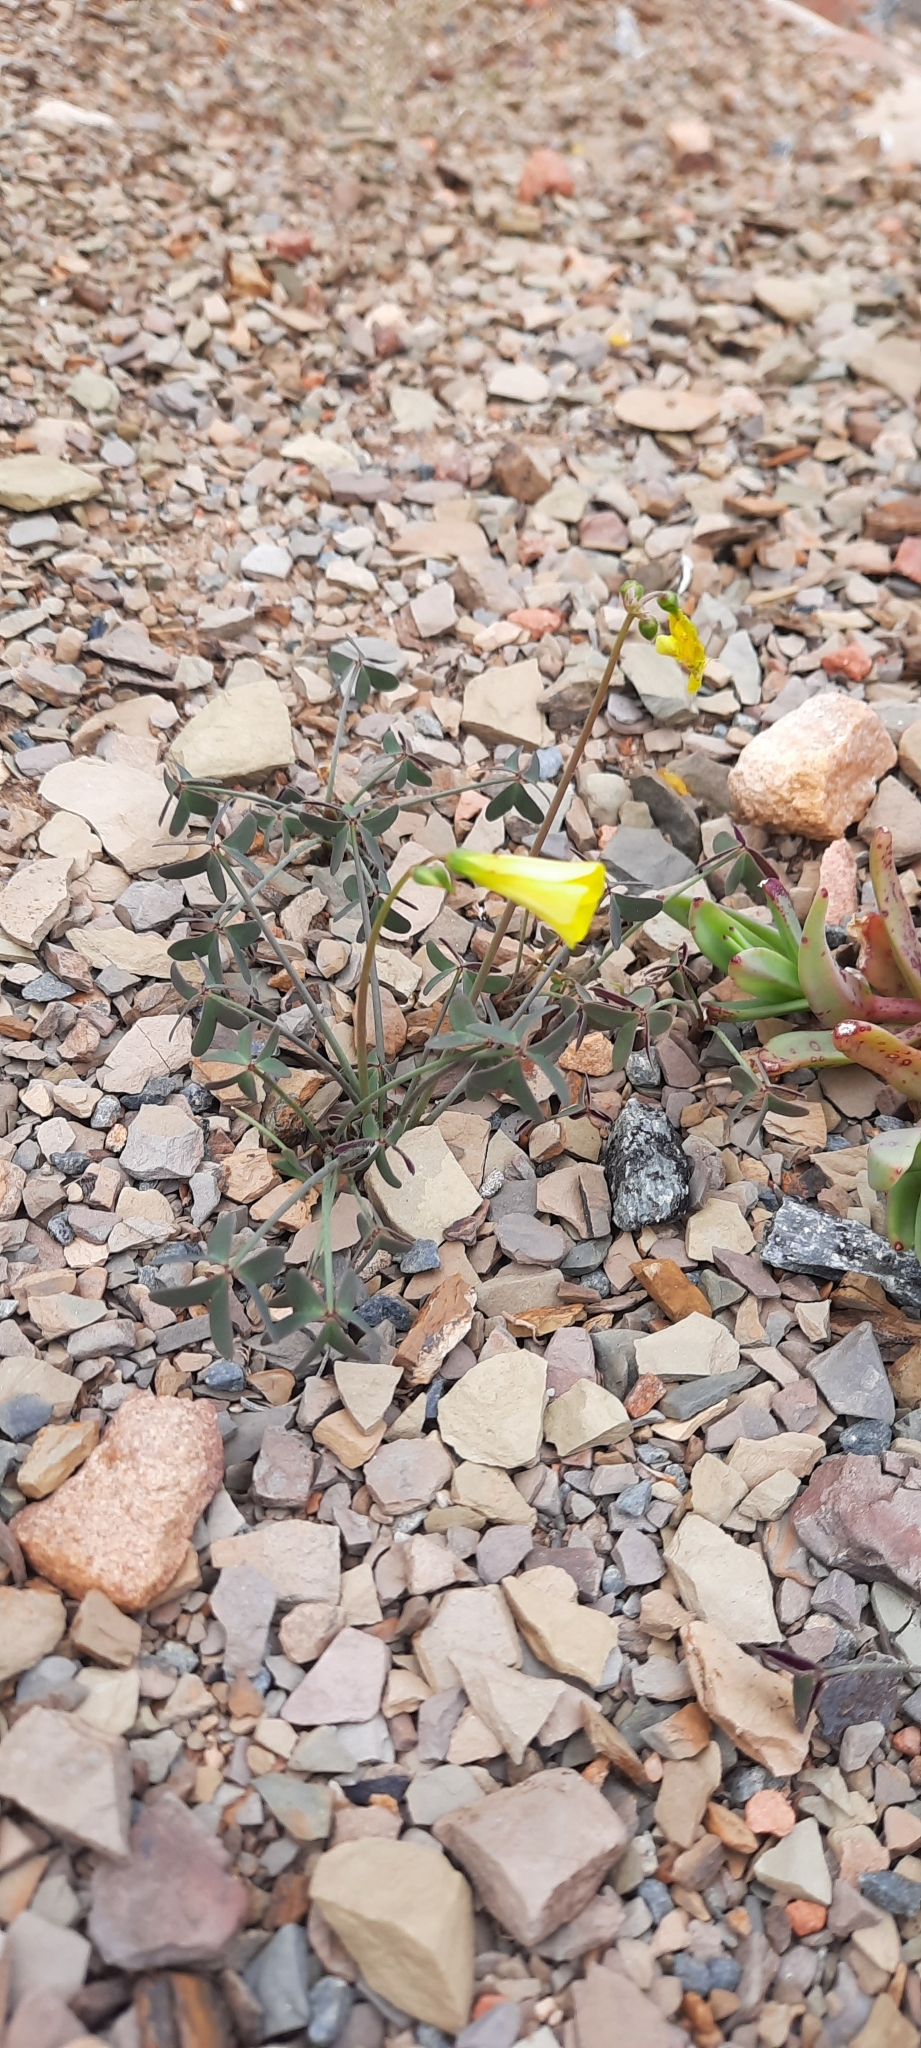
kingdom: Plantae
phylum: Tracheophyta
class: Magnoliopsida
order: Oxalidales
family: Oxalidaceae
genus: Oxalis
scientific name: Oxalis pes-caprae
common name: Bermuda-buttercup
